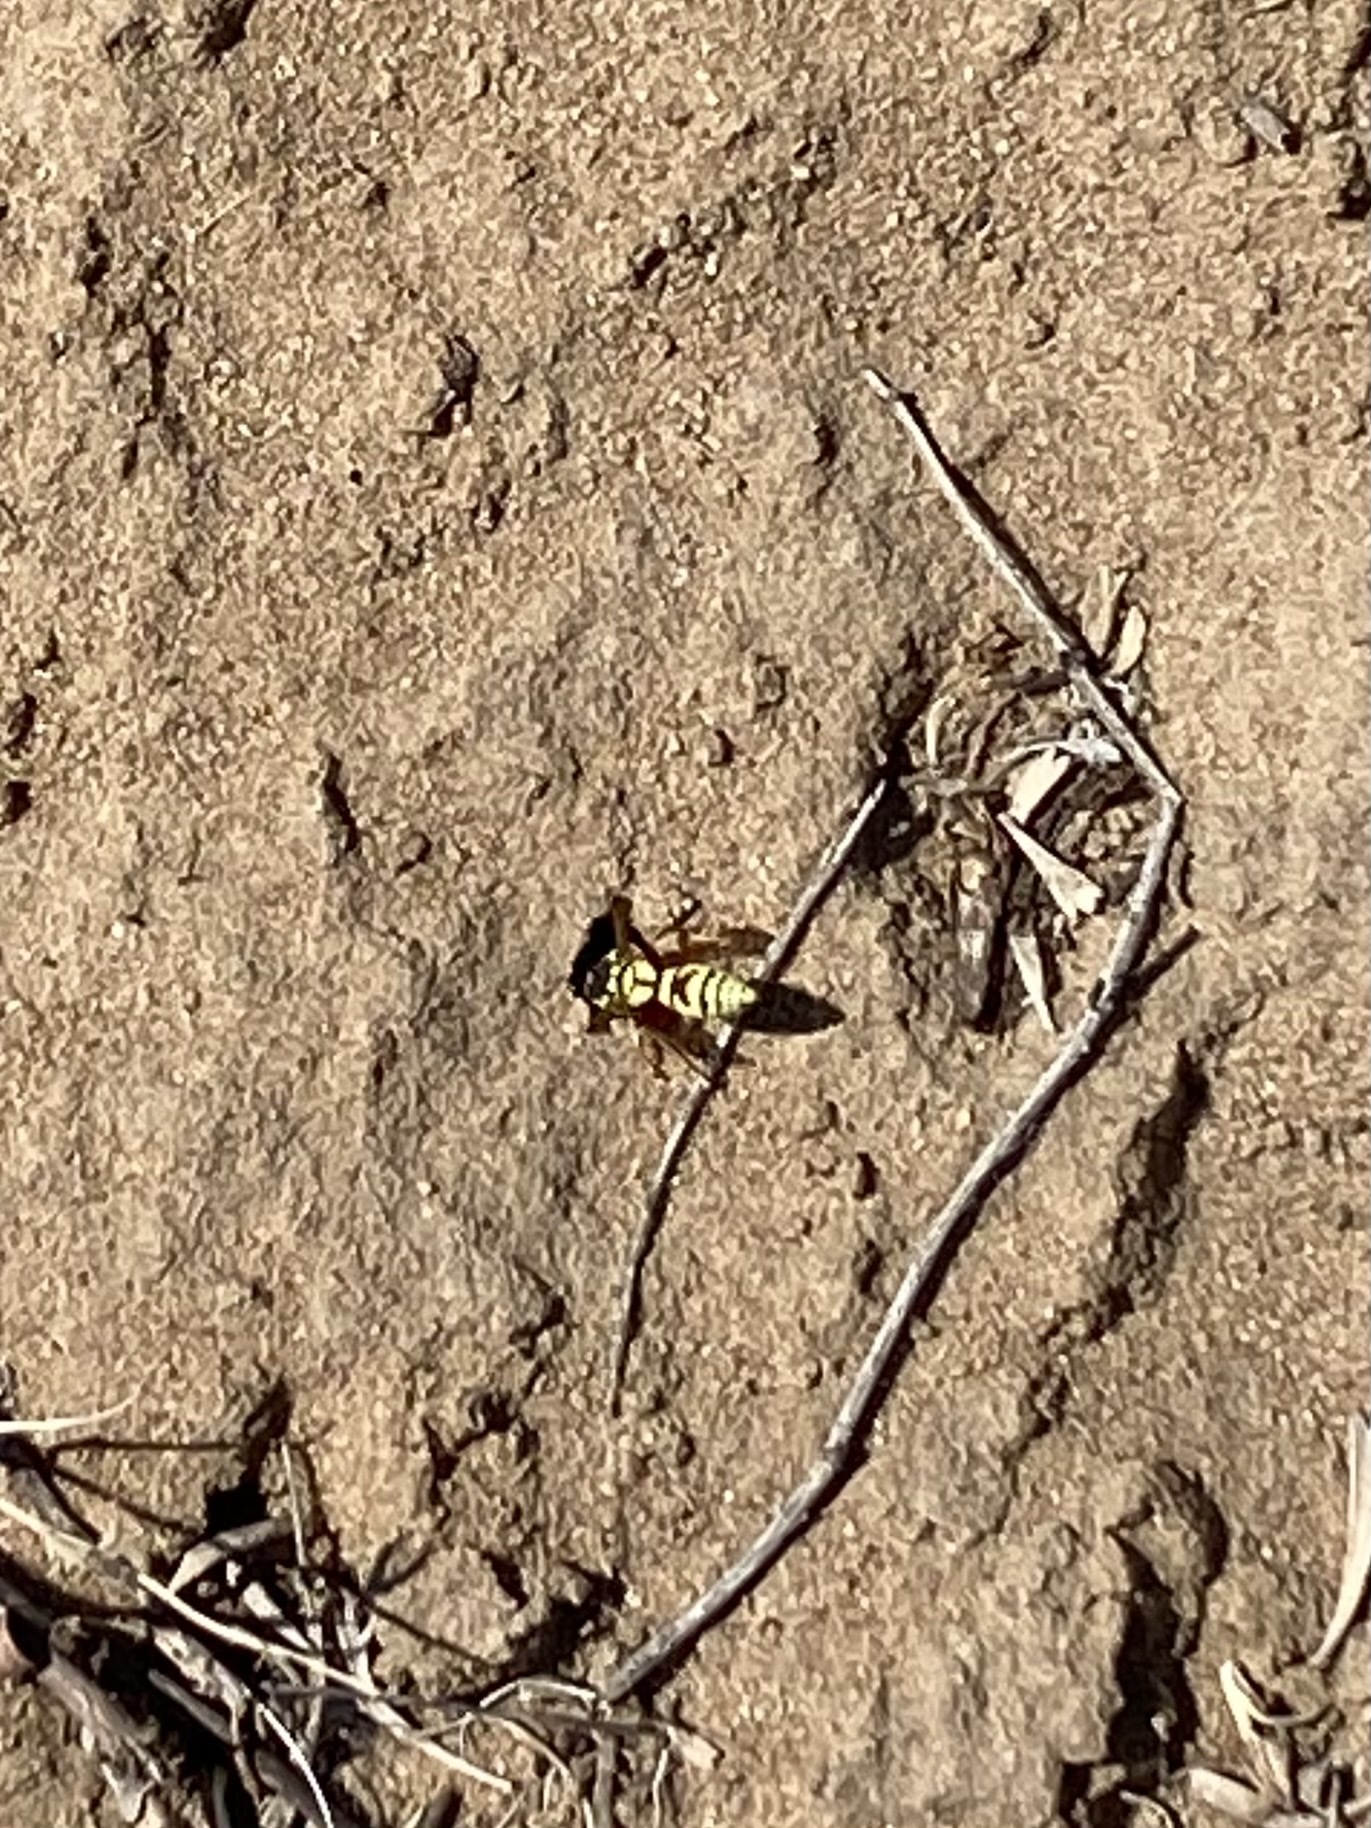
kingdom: Animalia
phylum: Arthropoda
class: Insecta
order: Hymenoptera
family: Eumenidae
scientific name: Eumenidae
